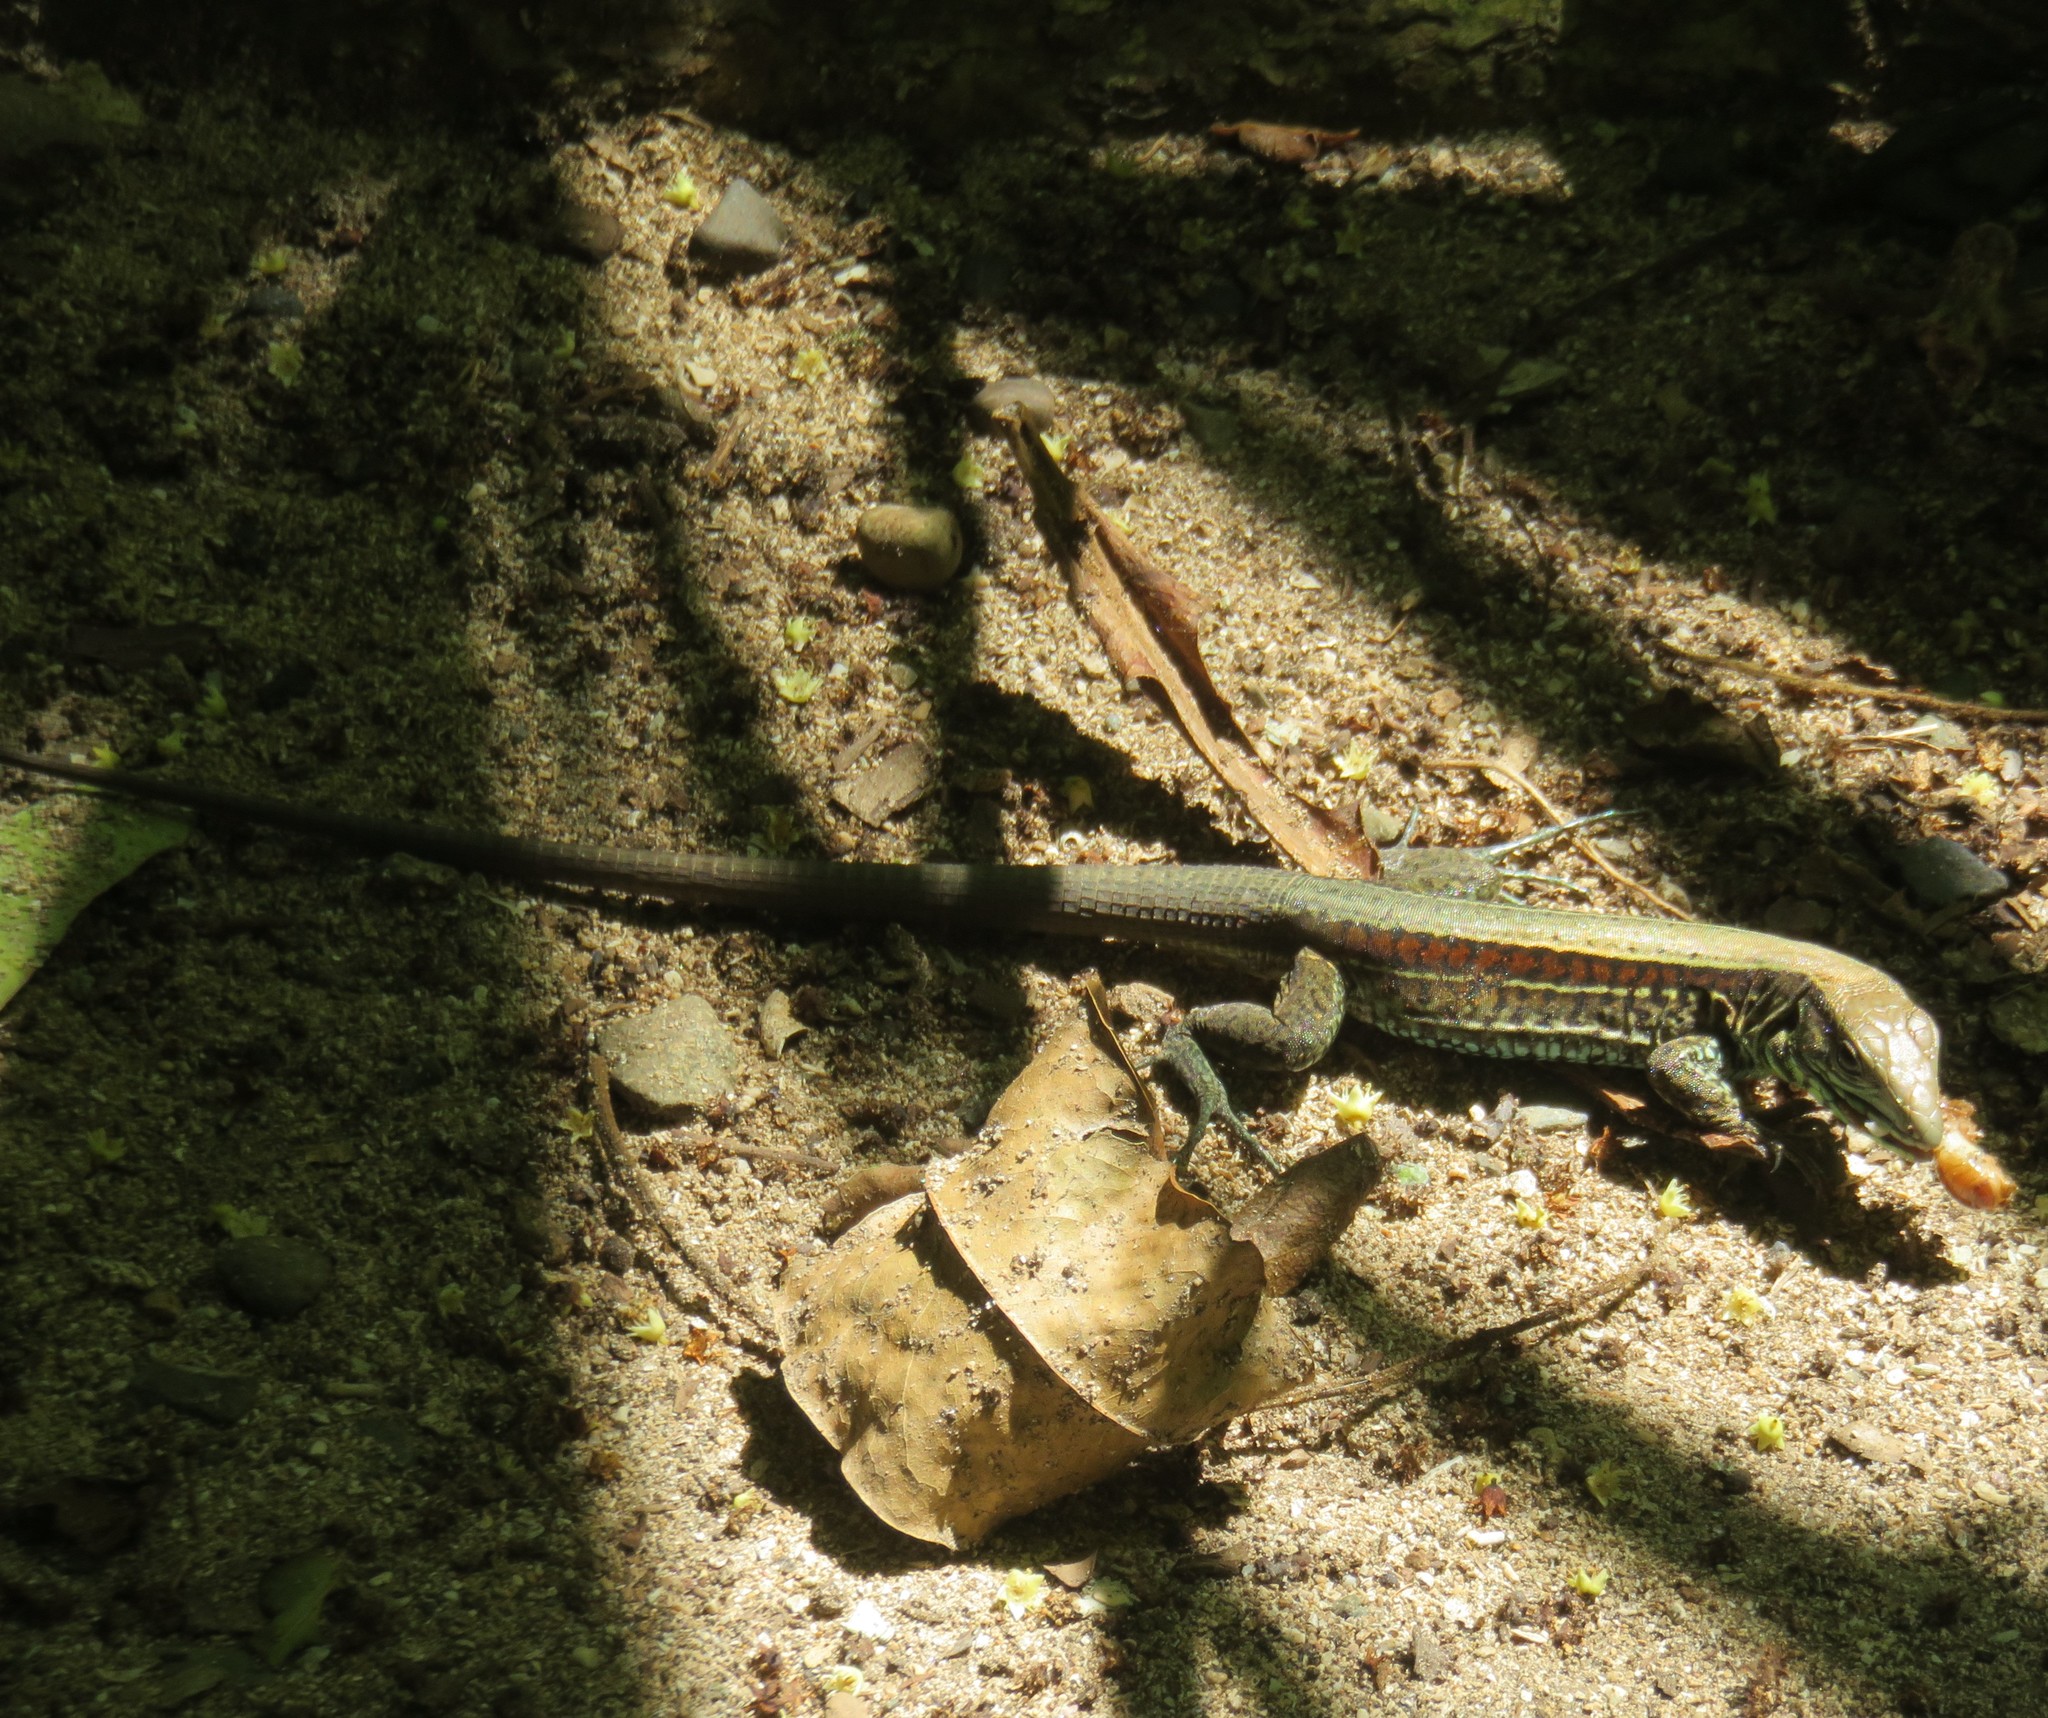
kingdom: Animalia
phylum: Chordata
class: Squamata
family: Teiidae
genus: Holcosus
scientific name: Holcosus quadrilineatus
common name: Four-lined ameiva
